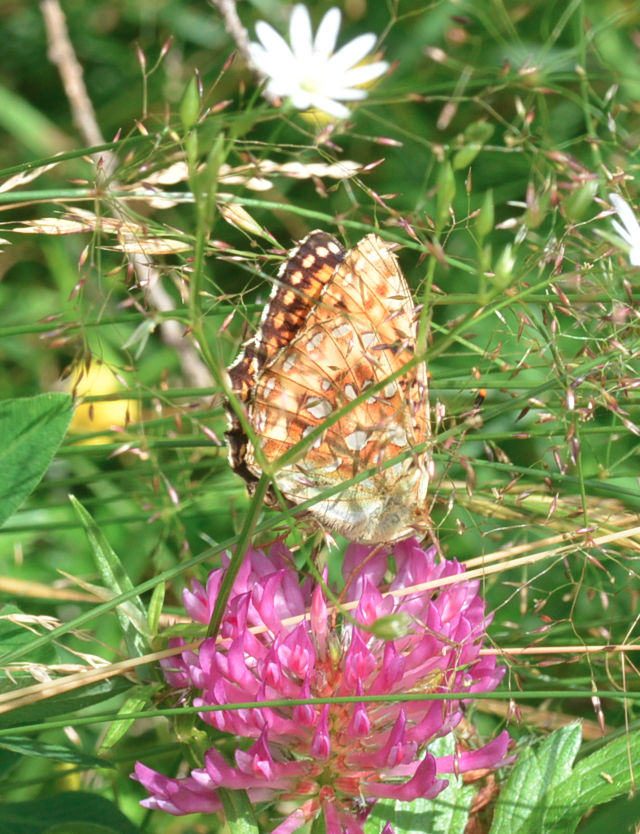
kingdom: Animalia
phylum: Arthropoda
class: Insecta
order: Lepidoptera
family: Nymphalidae
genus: Speyeria
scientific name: Speyeria aglaja
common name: Dark green fritillary
